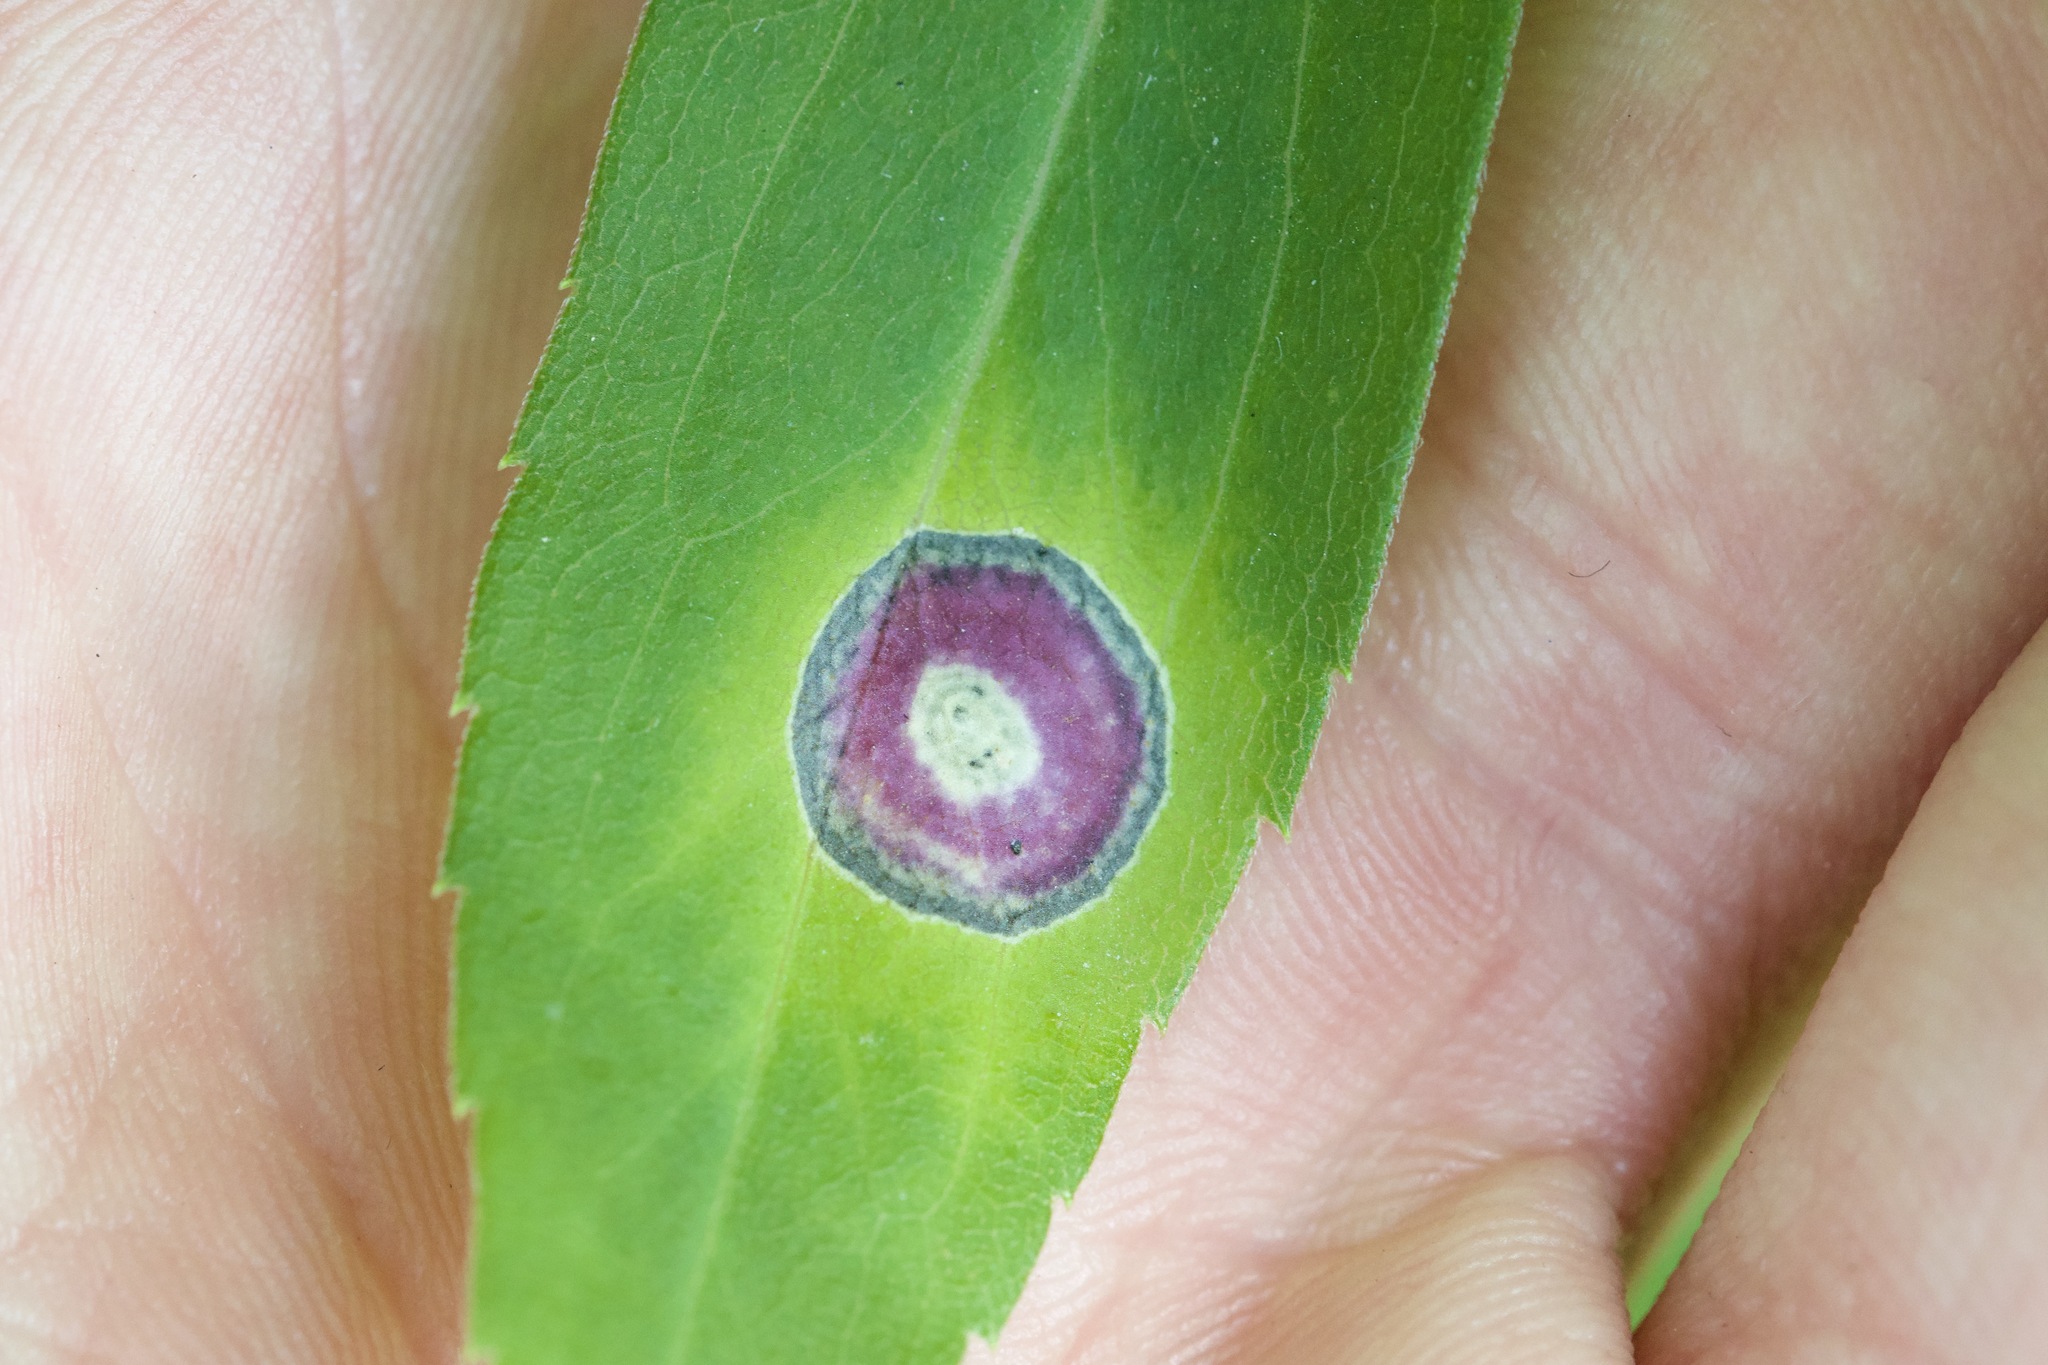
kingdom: Fungi
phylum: Ascomycota
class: Dothideomycetes
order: Botryosphaeriales
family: Botryosphaeriaceae
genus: Botryosphaeria
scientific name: Botryosphaeria dothidea
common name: Asteromyia gall midge fungus
